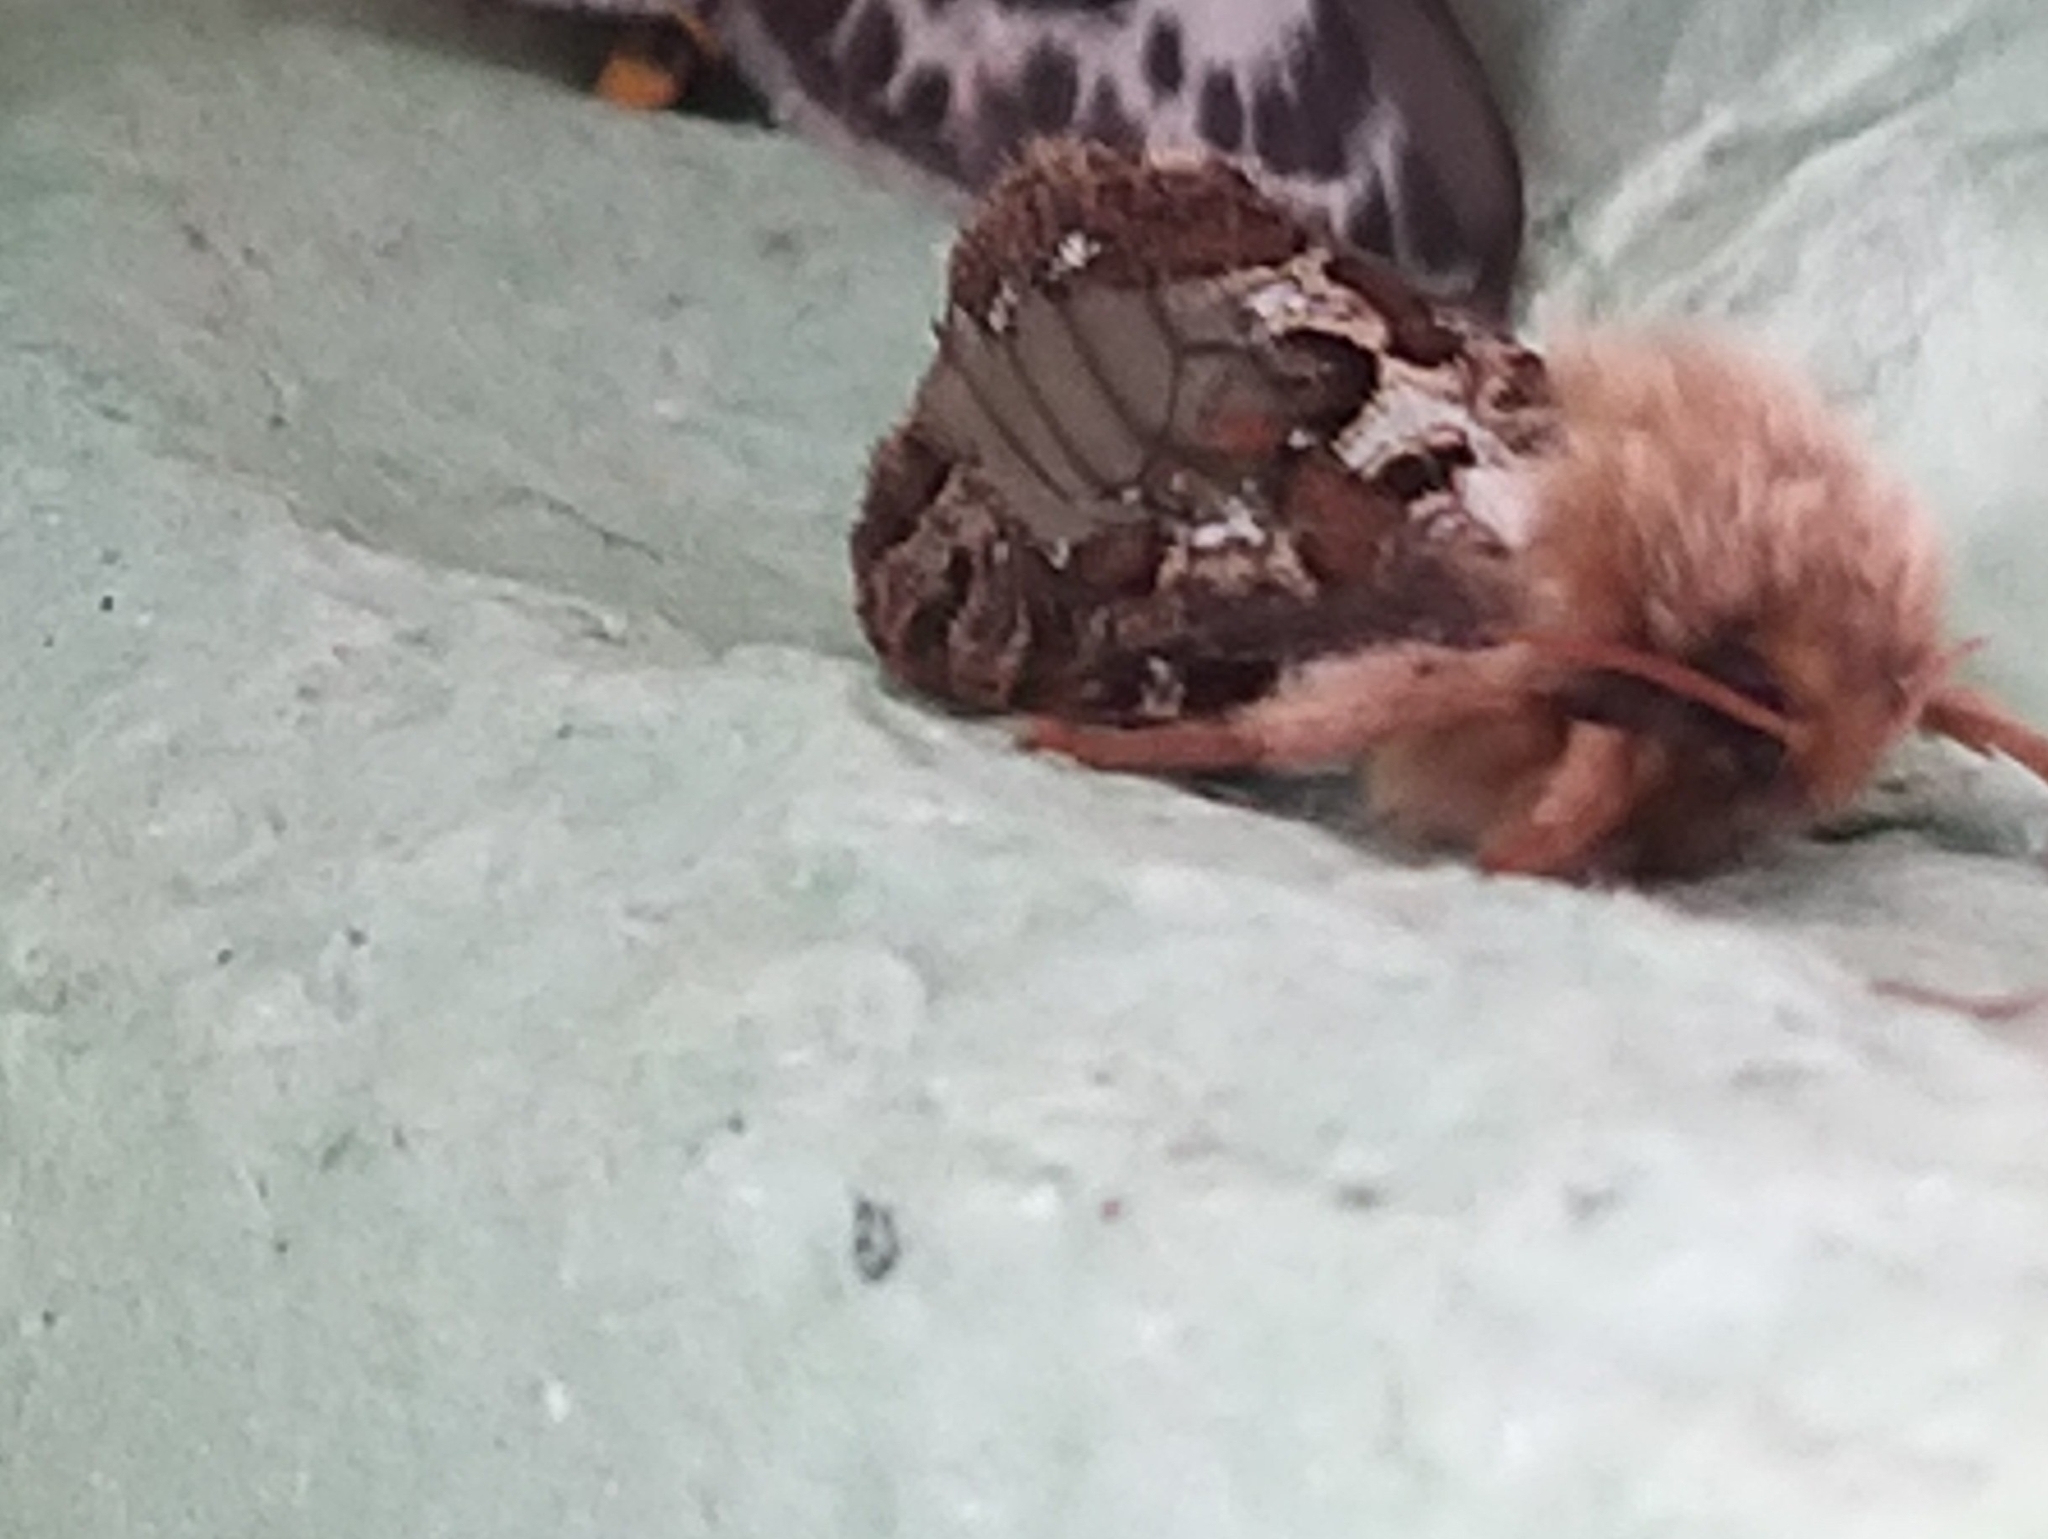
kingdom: Animalia
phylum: Arthropoda
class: Insecta
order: Lepidoptera
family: Hepialidae
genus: Korscheltellus
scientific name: Korscheltellus fusconebulosus
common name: Map-winged swift
